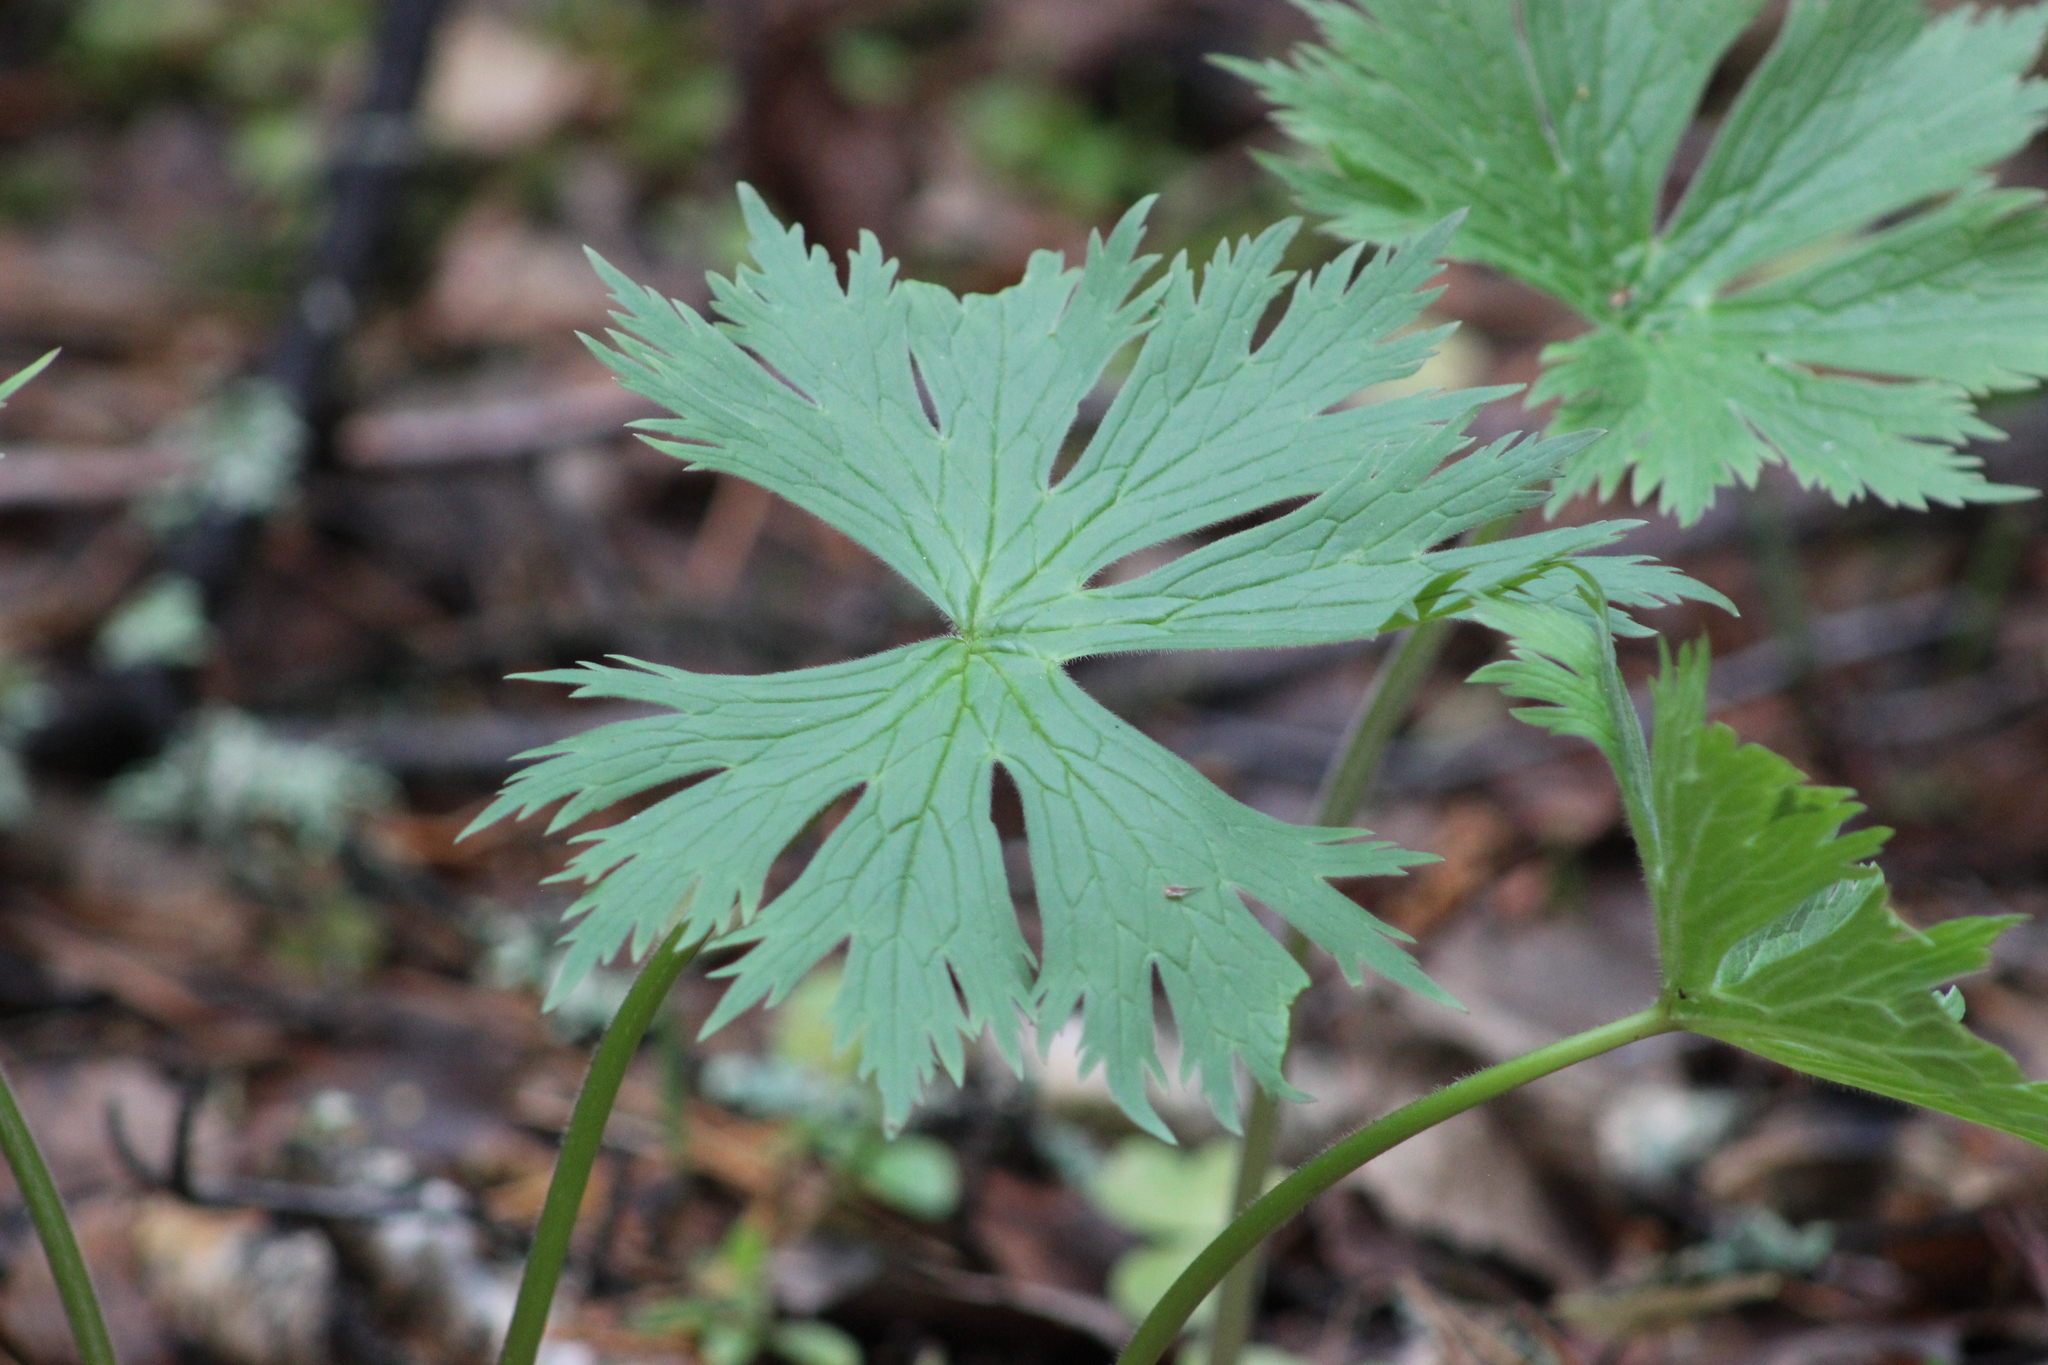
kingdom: Plantae
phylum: Tracheophyta
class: Magnoliopsida
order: Ranunculales
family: Ranunculaceae
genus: Aconitum
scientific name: Aconitum septentrionale
